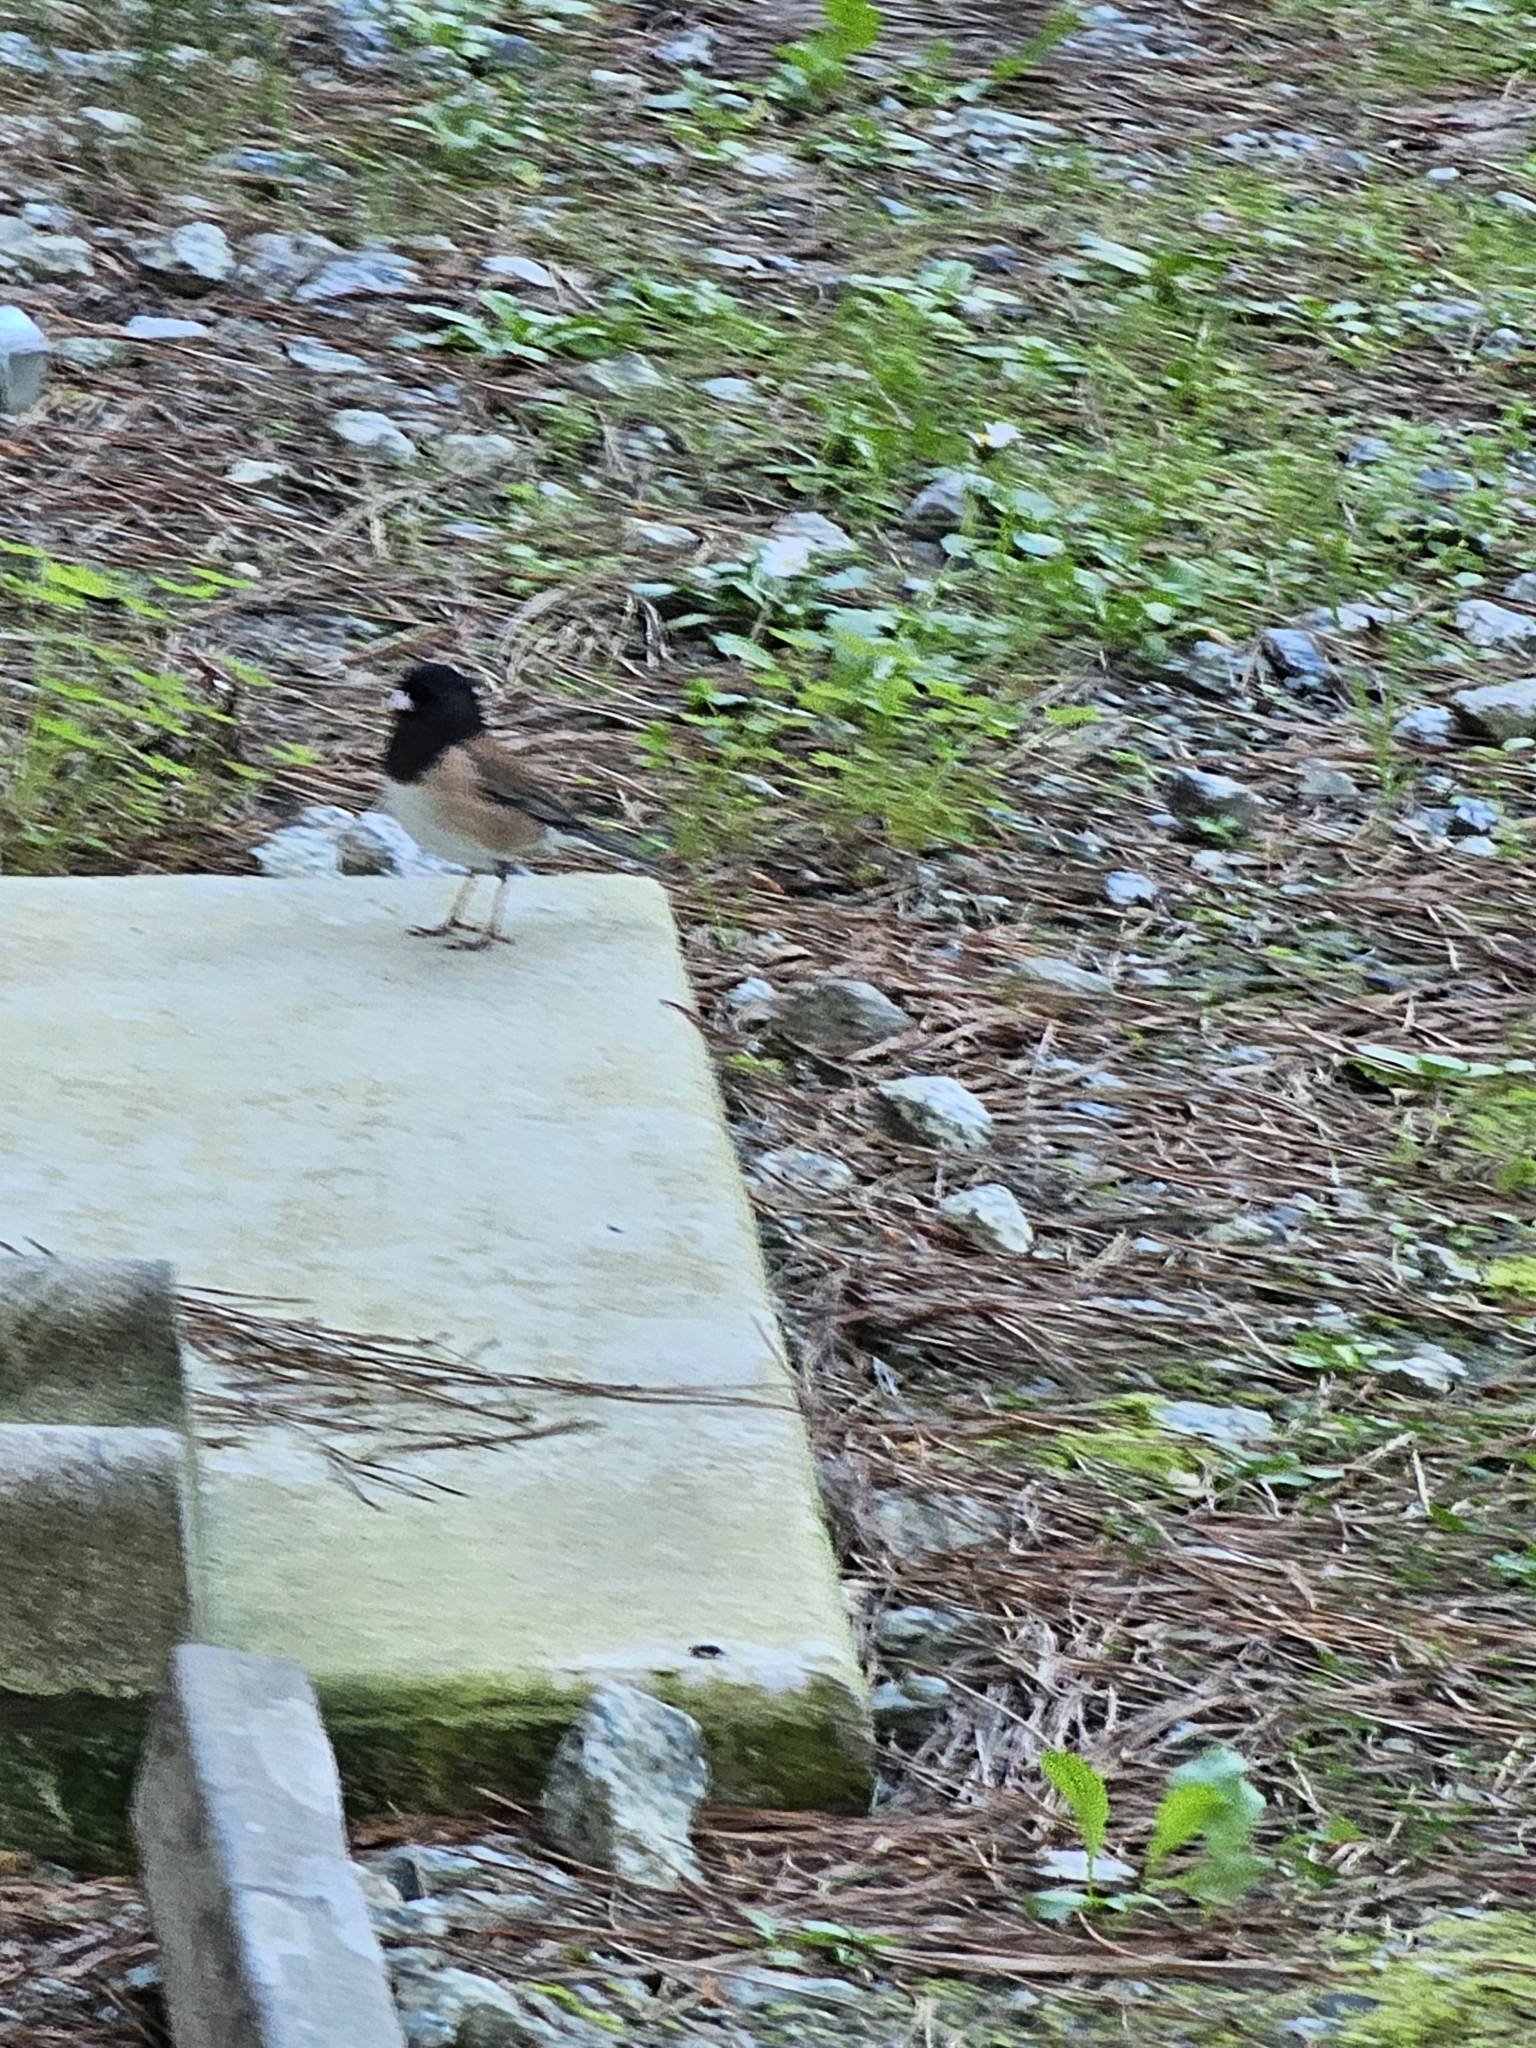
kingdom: Animalia
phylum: Chordata
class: Aves
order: Passeriformes
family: Passerellidae
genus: Junco
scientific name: Junco hyemalis
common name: Dark-eyed junco
